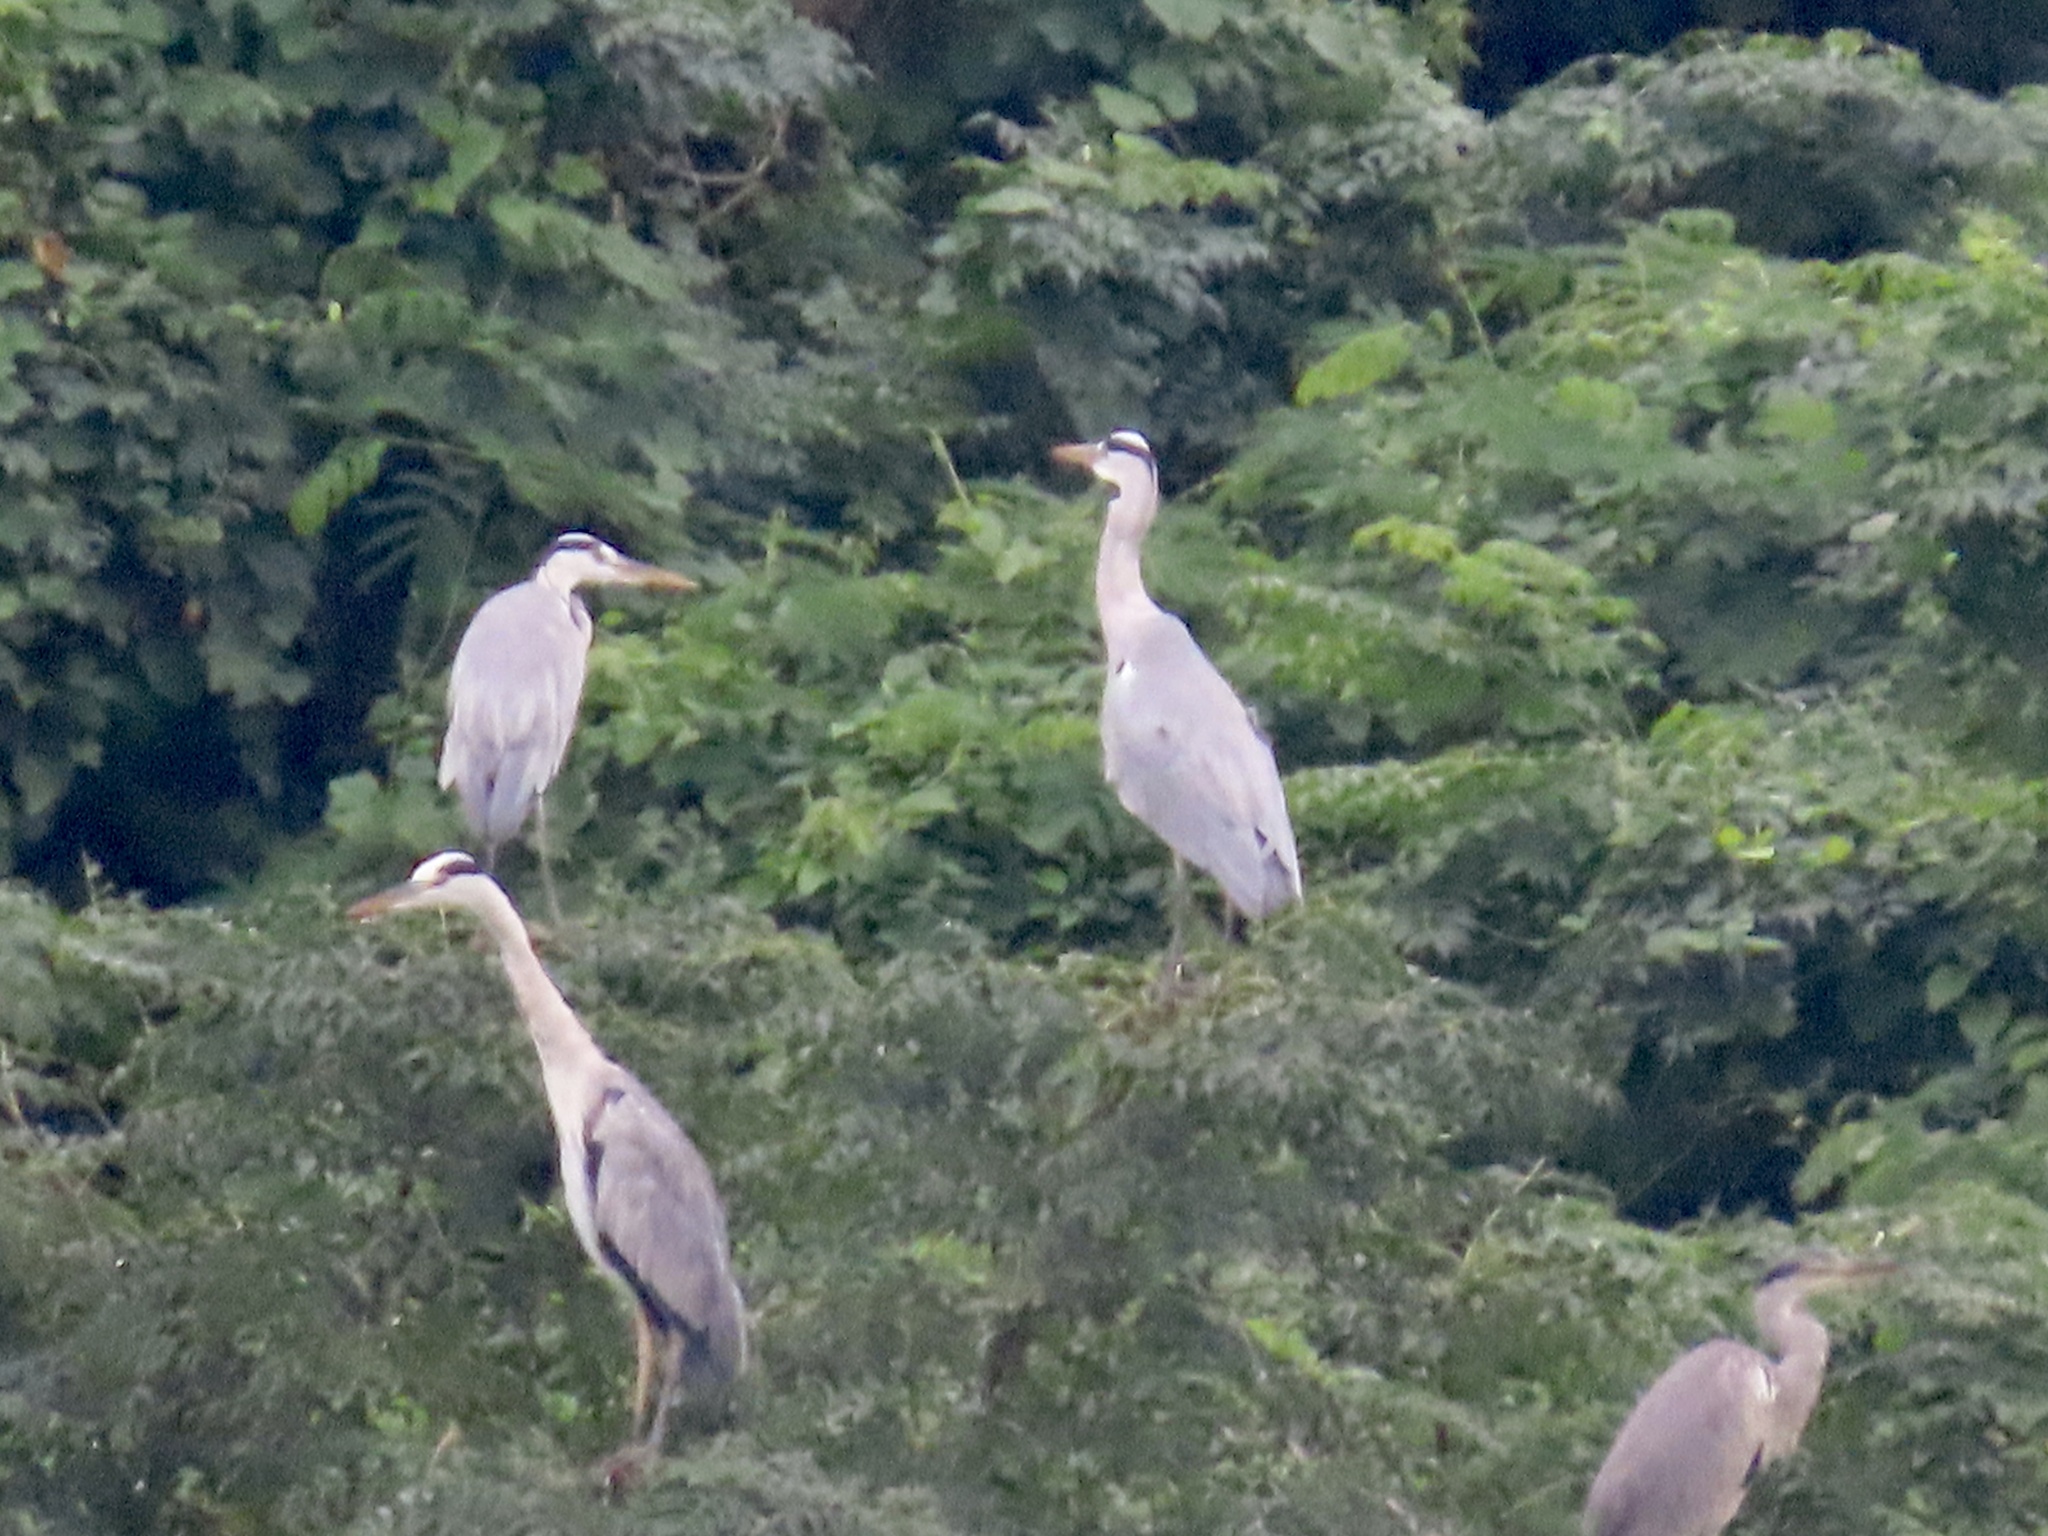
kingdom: Animalia
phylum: Chordata
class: Aves
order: Pelecaniformes
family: Ardeidae
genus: Ardea
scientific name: Ardea cinerea
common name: Grey heron
